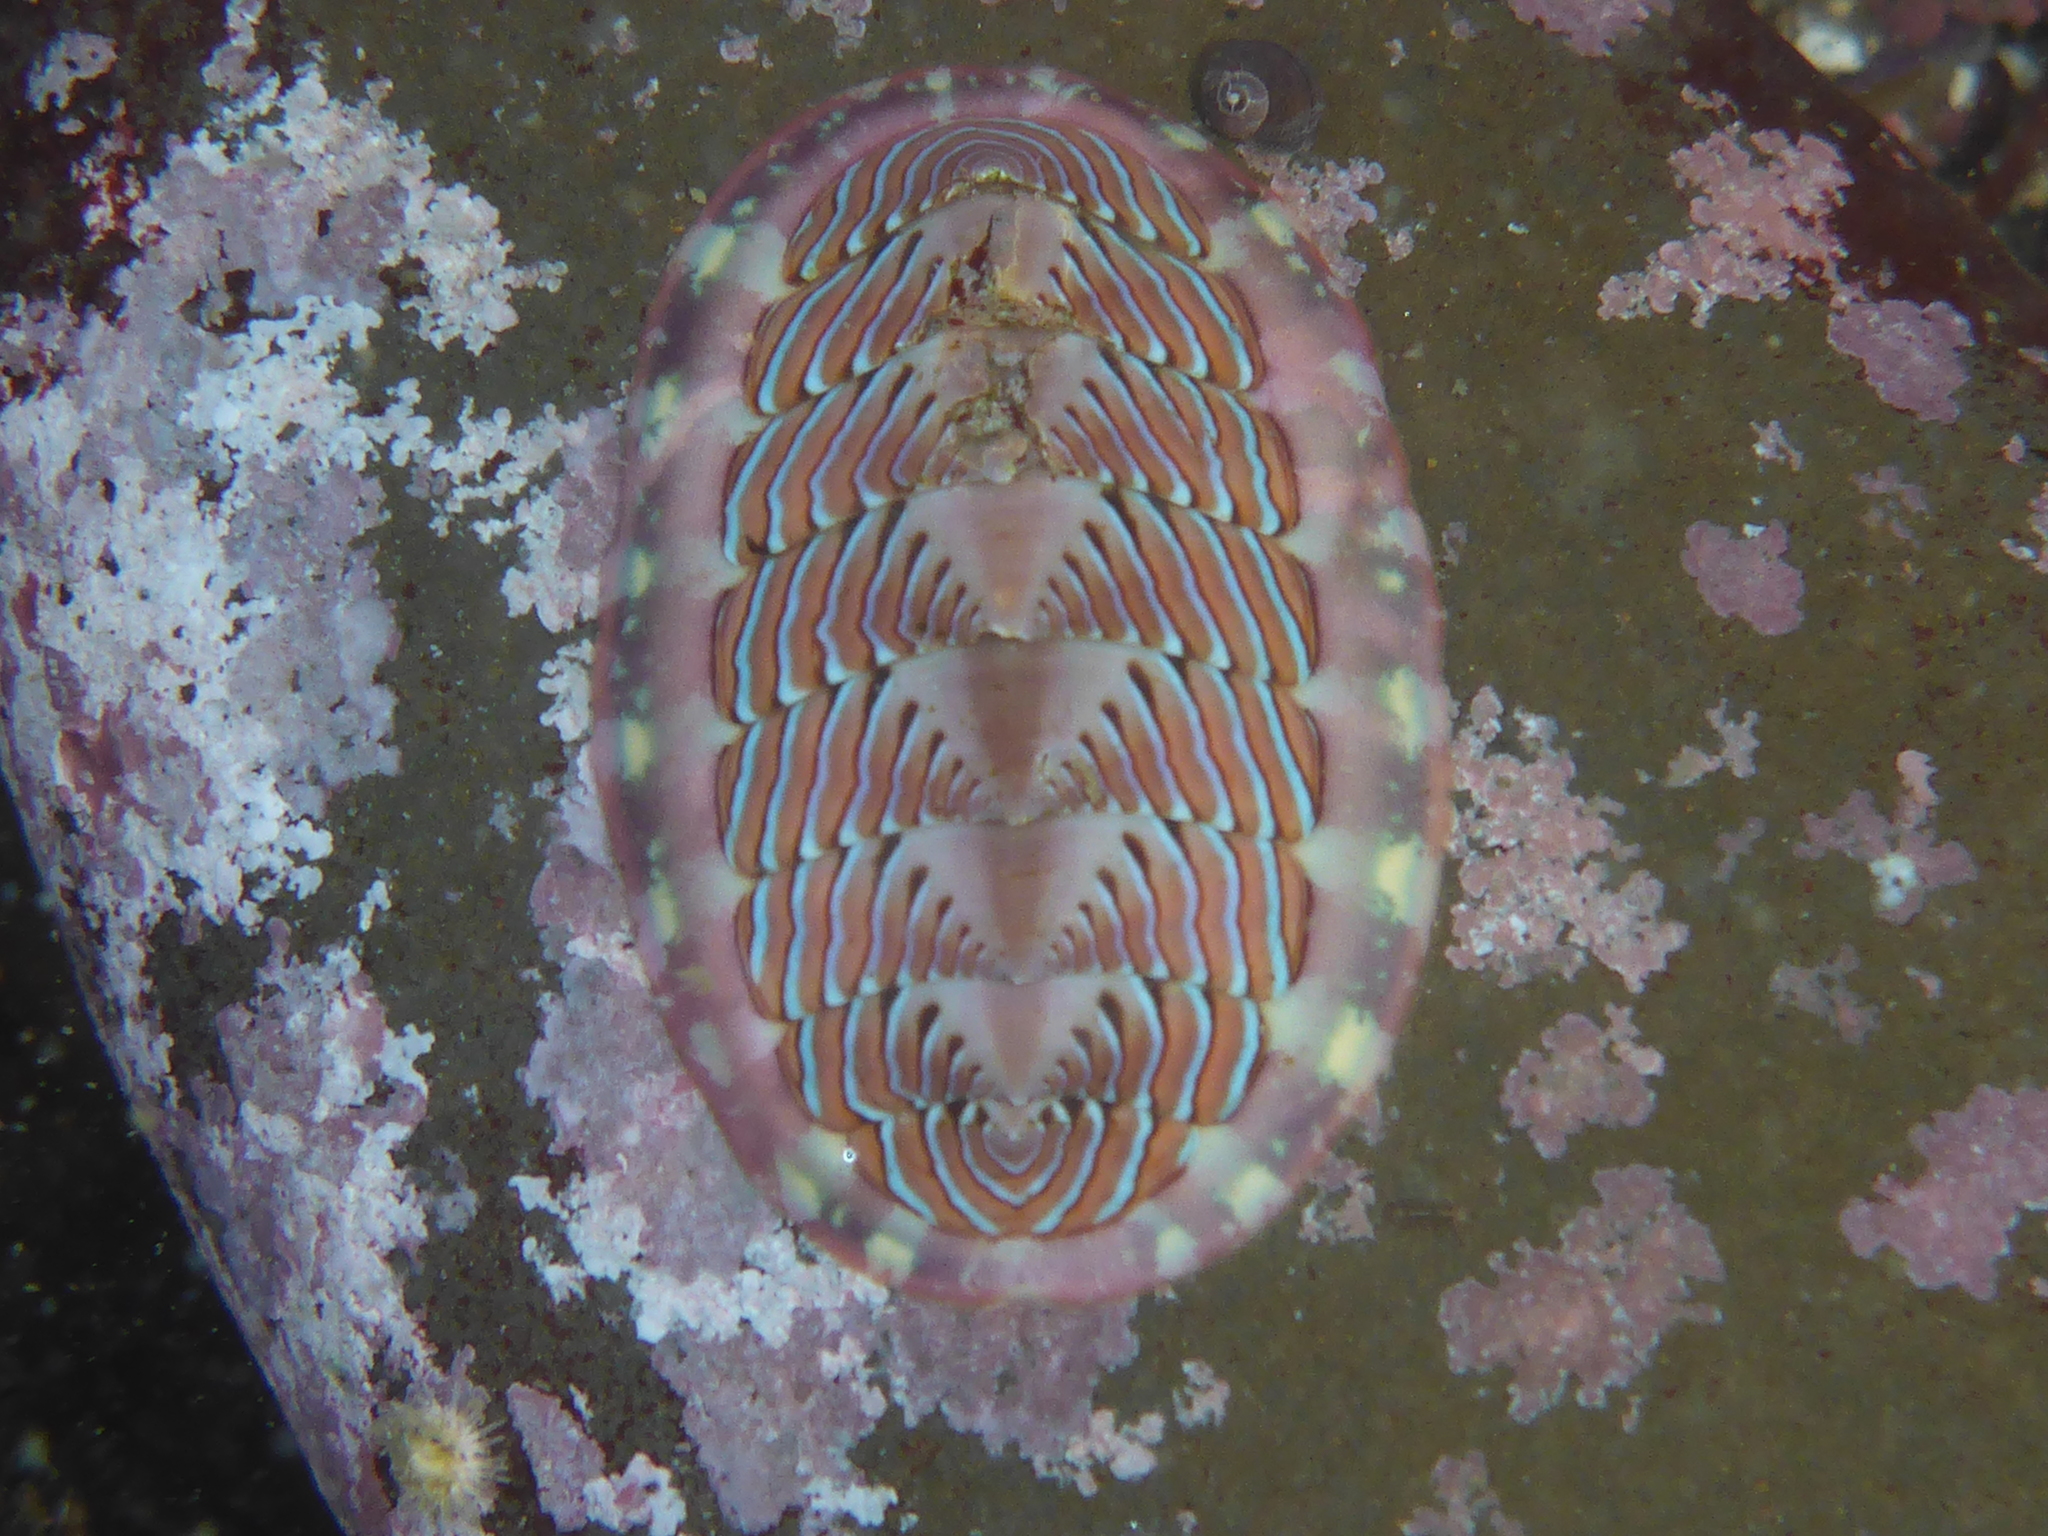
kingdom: Animalia
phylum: Mollusca
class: Polyplacophora
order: Chitonida
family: Tonicellidae
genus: Tonicella
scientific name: Tonicella lineata
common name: Lined chiton
